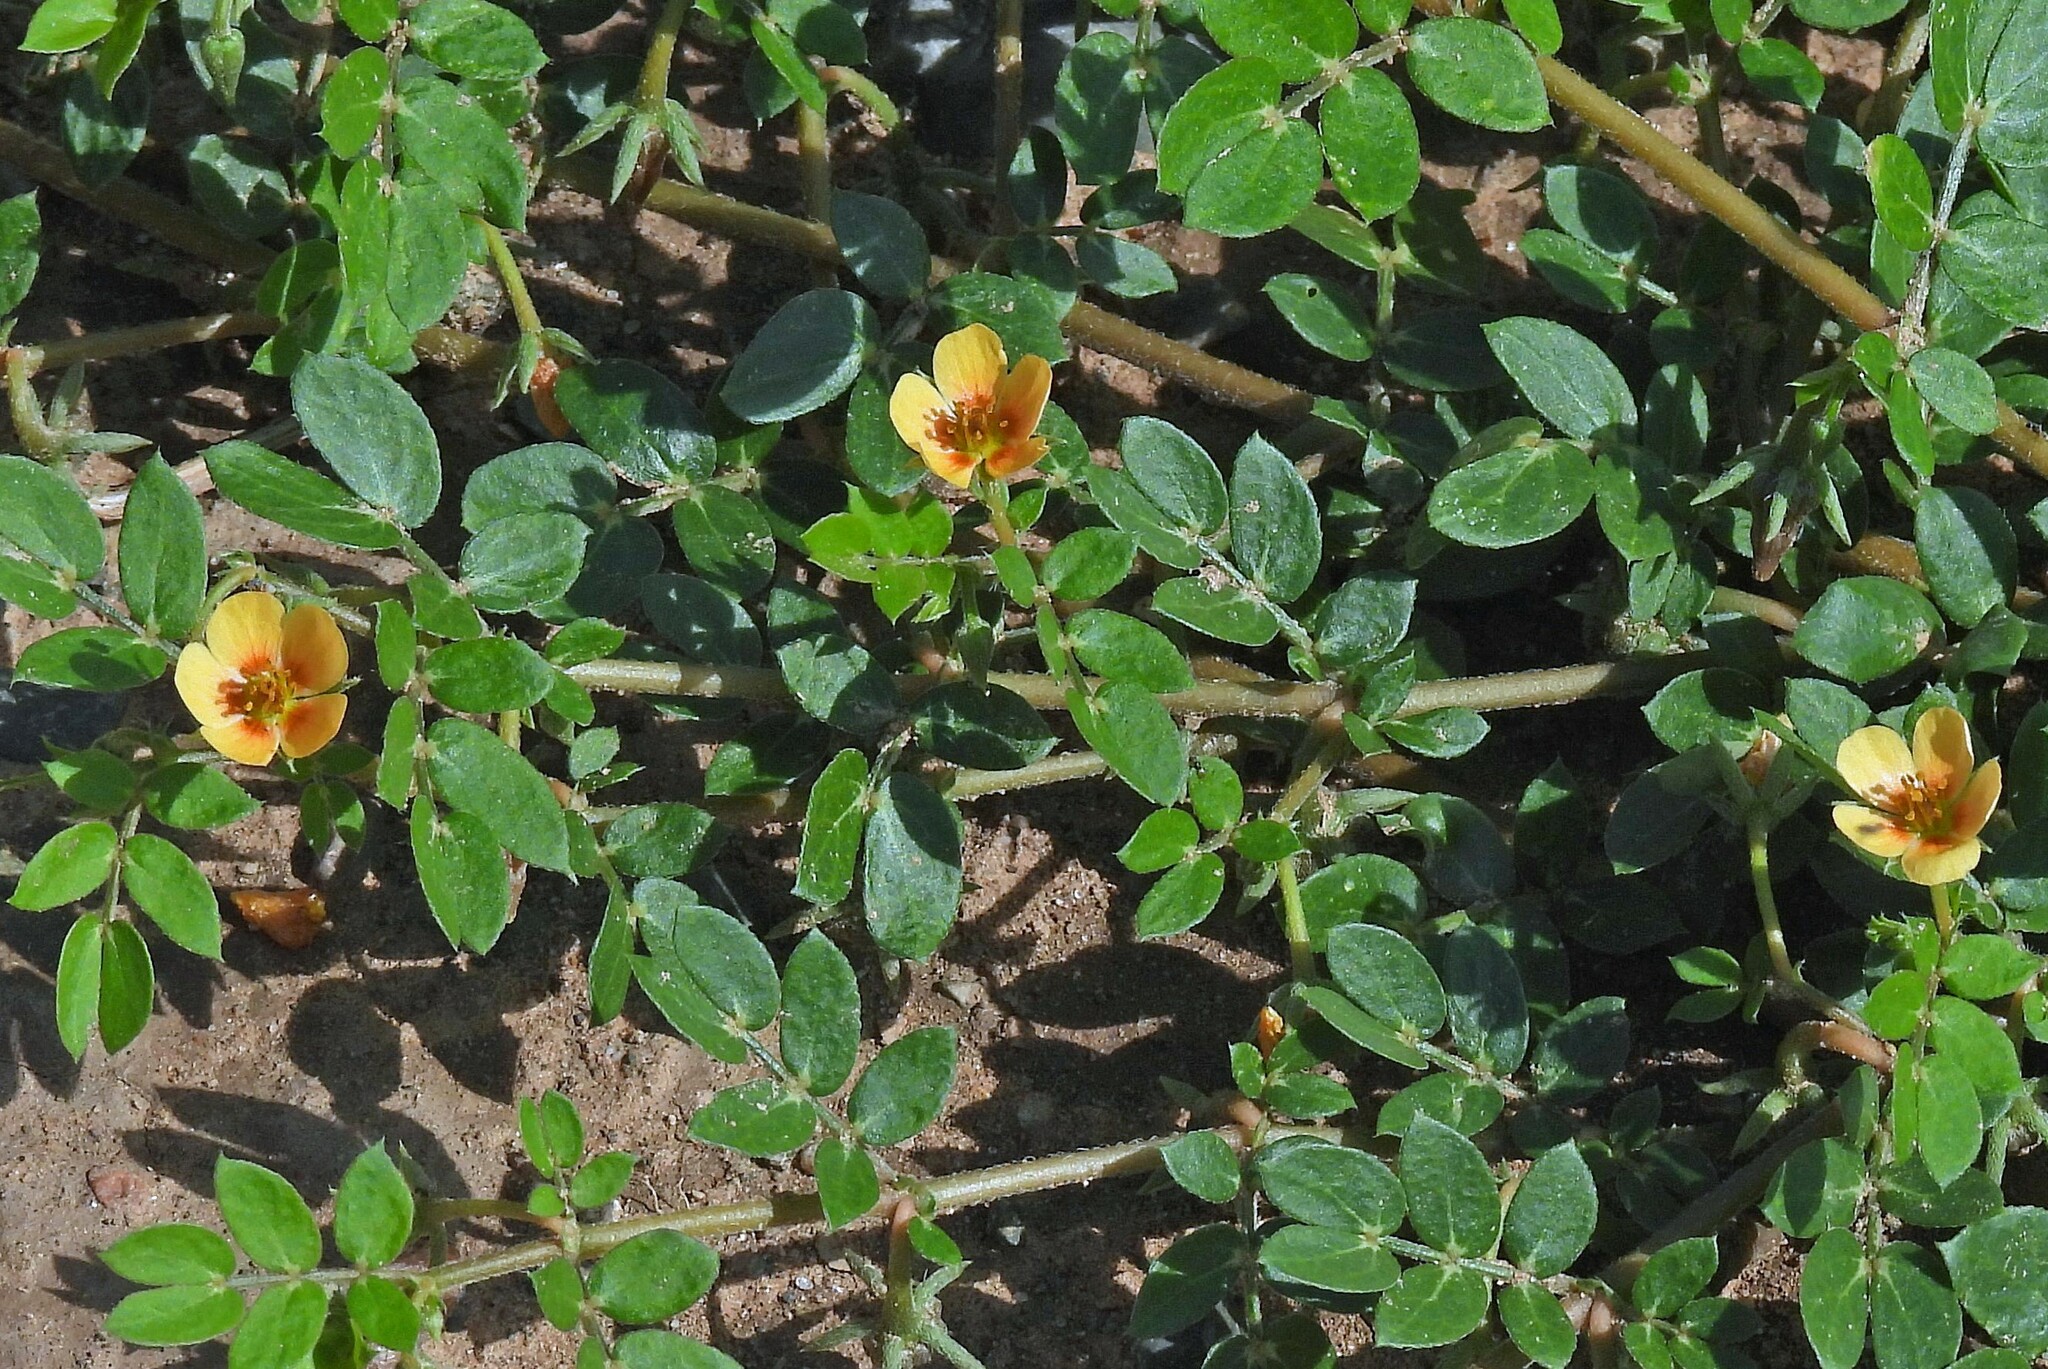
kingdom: Plantae
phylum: Tracheophyta
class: Magnoliopsida
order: Zygophyllales
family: Zygophyllaceae
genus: Kallstroemia
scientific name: Kallstroemia tucumanensis
